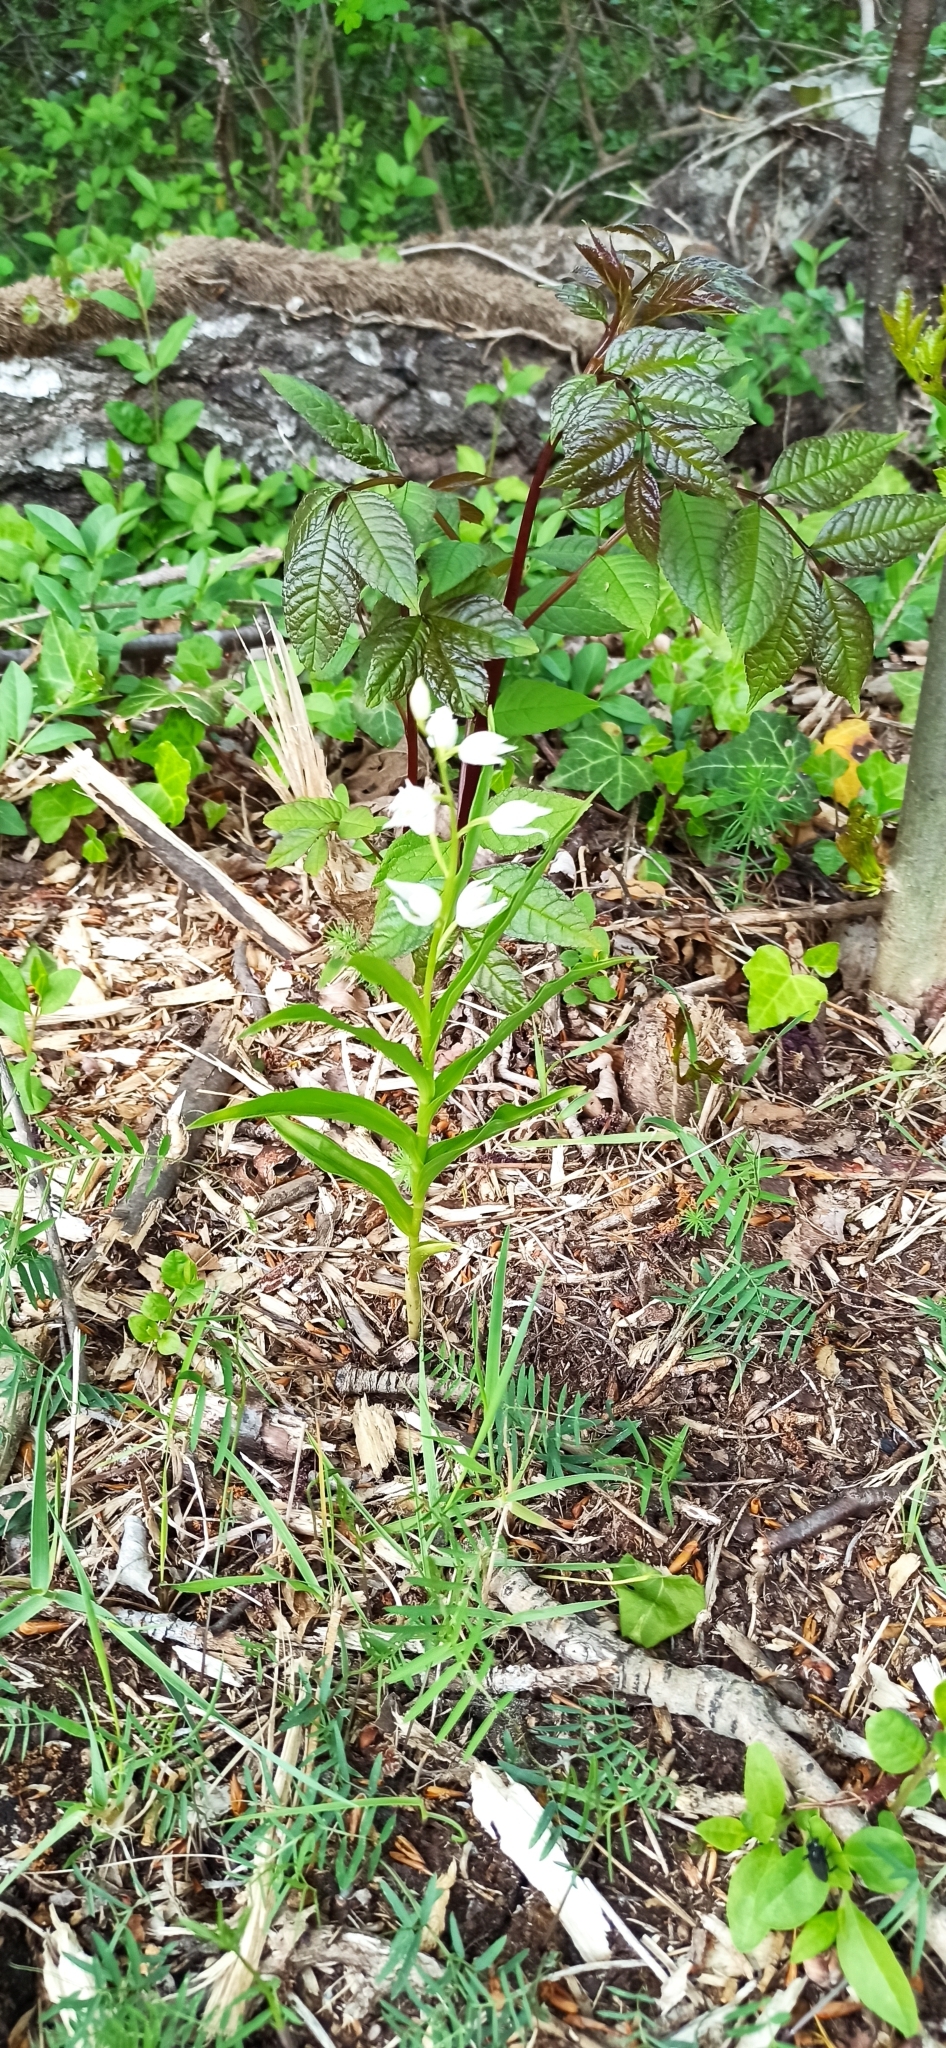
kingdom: Plantae
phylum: Tracheophyta
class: Liliopsida
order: Asparagales
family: Orchidaceae
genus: Cephalanthera
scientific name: Cephalanthera longifolia
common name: Narrow-leaved helleborine
